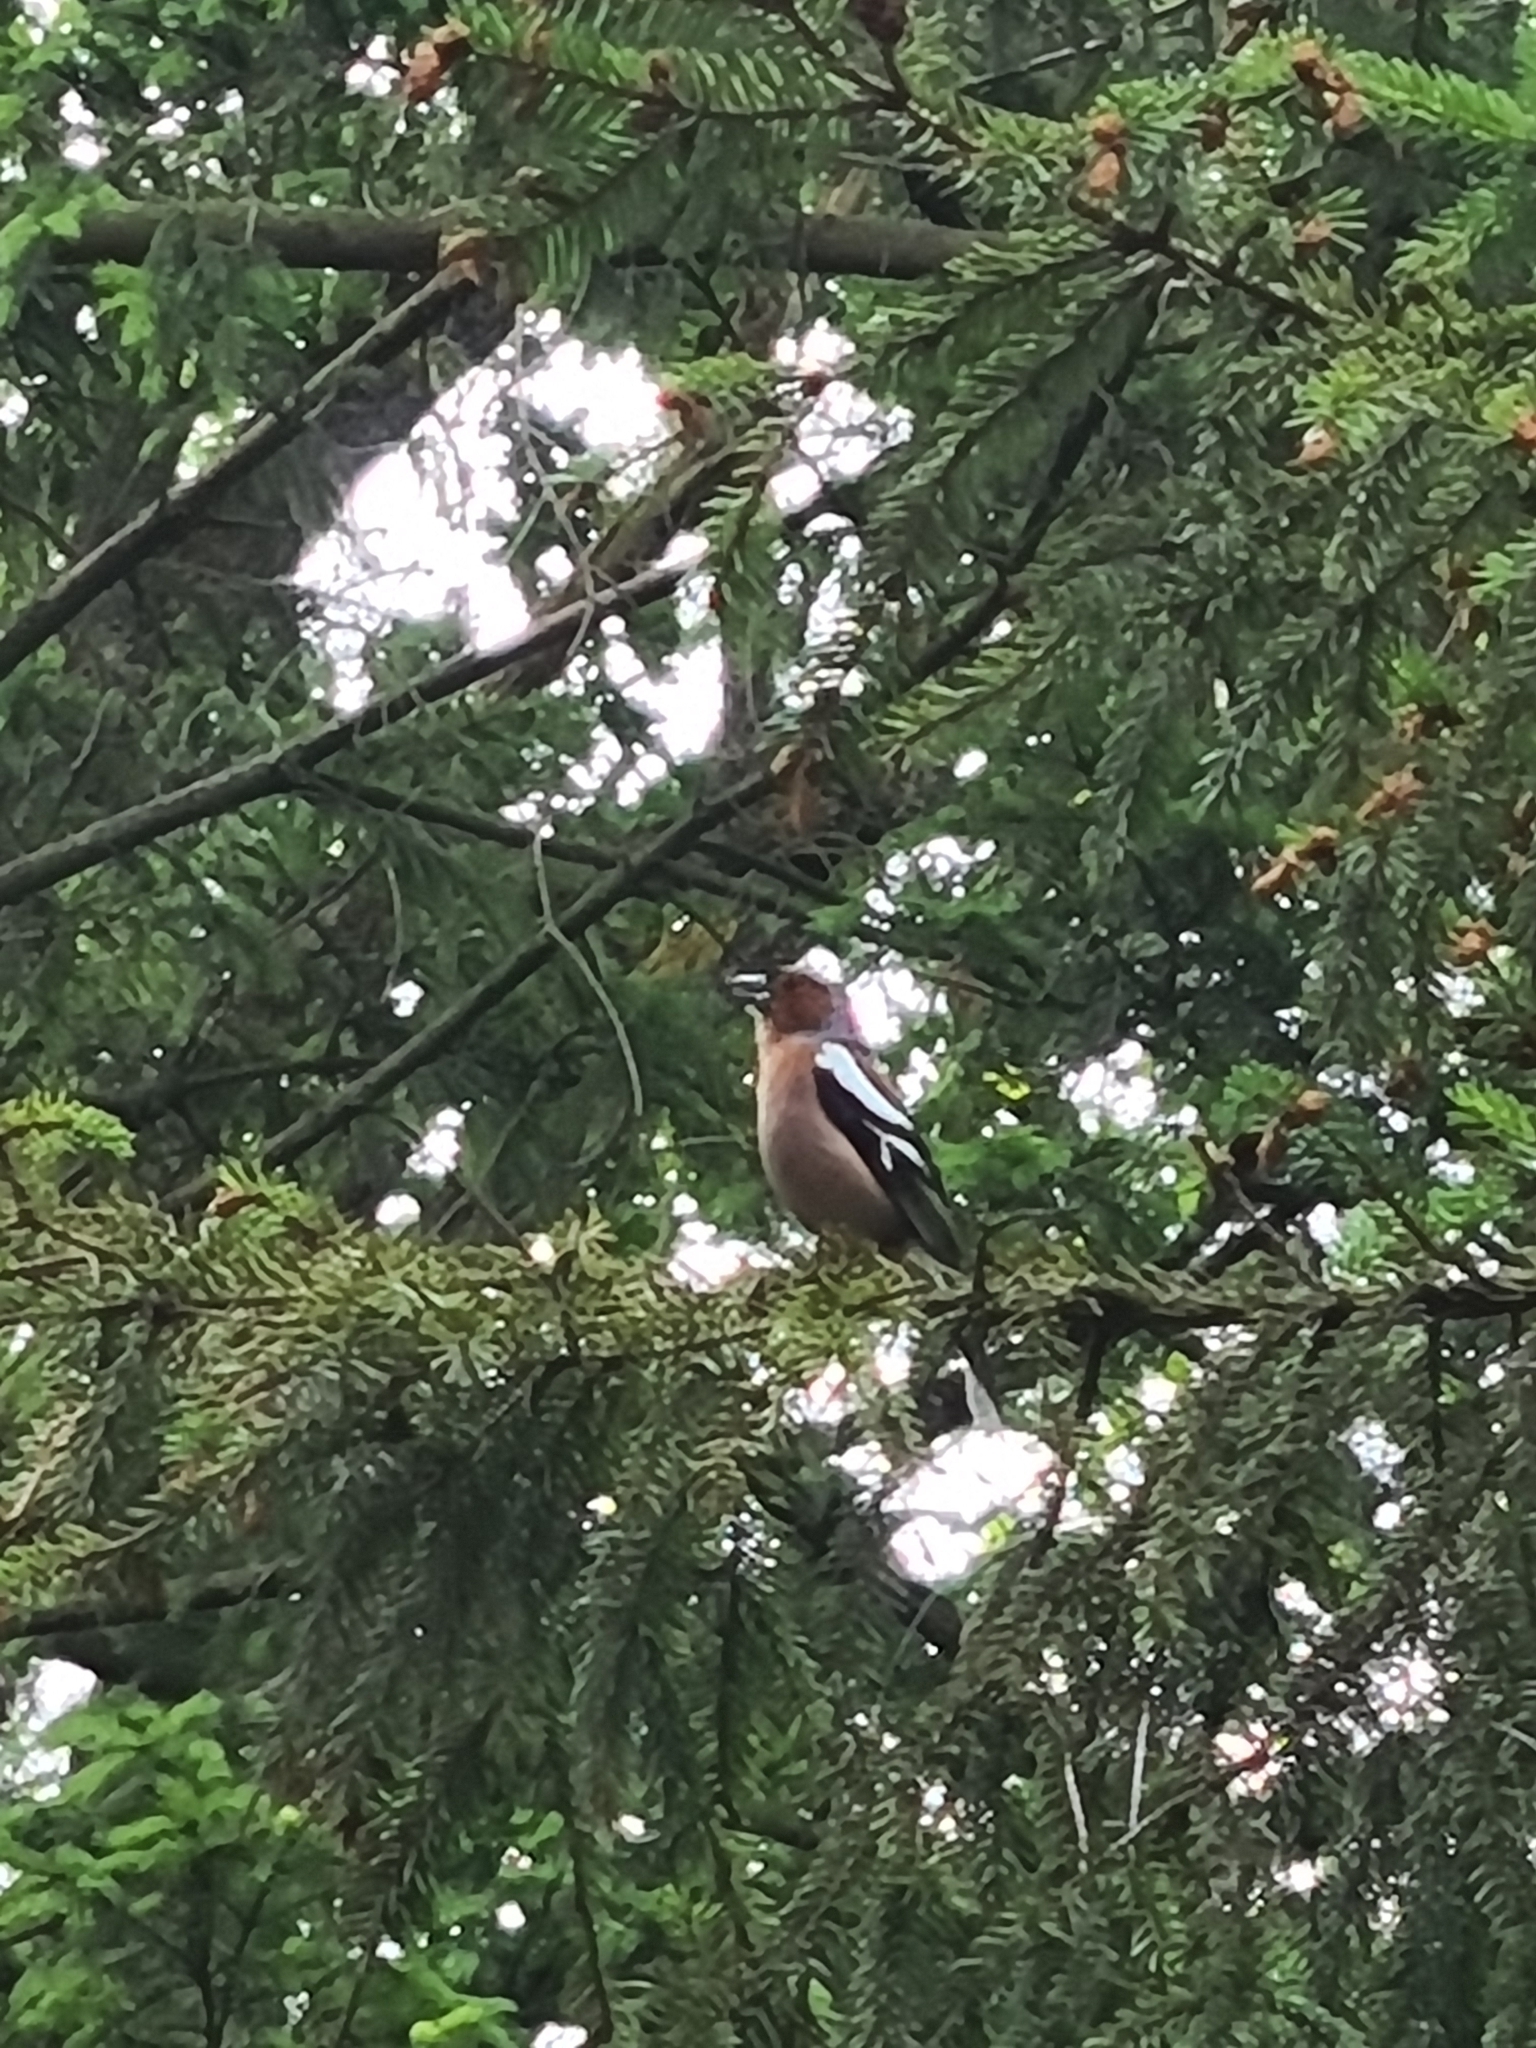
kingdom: Animalia
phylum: Chordata
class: Aves
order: Passeriformes
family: Fringillidae
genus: Fringilla
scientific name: Fringilla coelebs
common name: Common chaffinch
